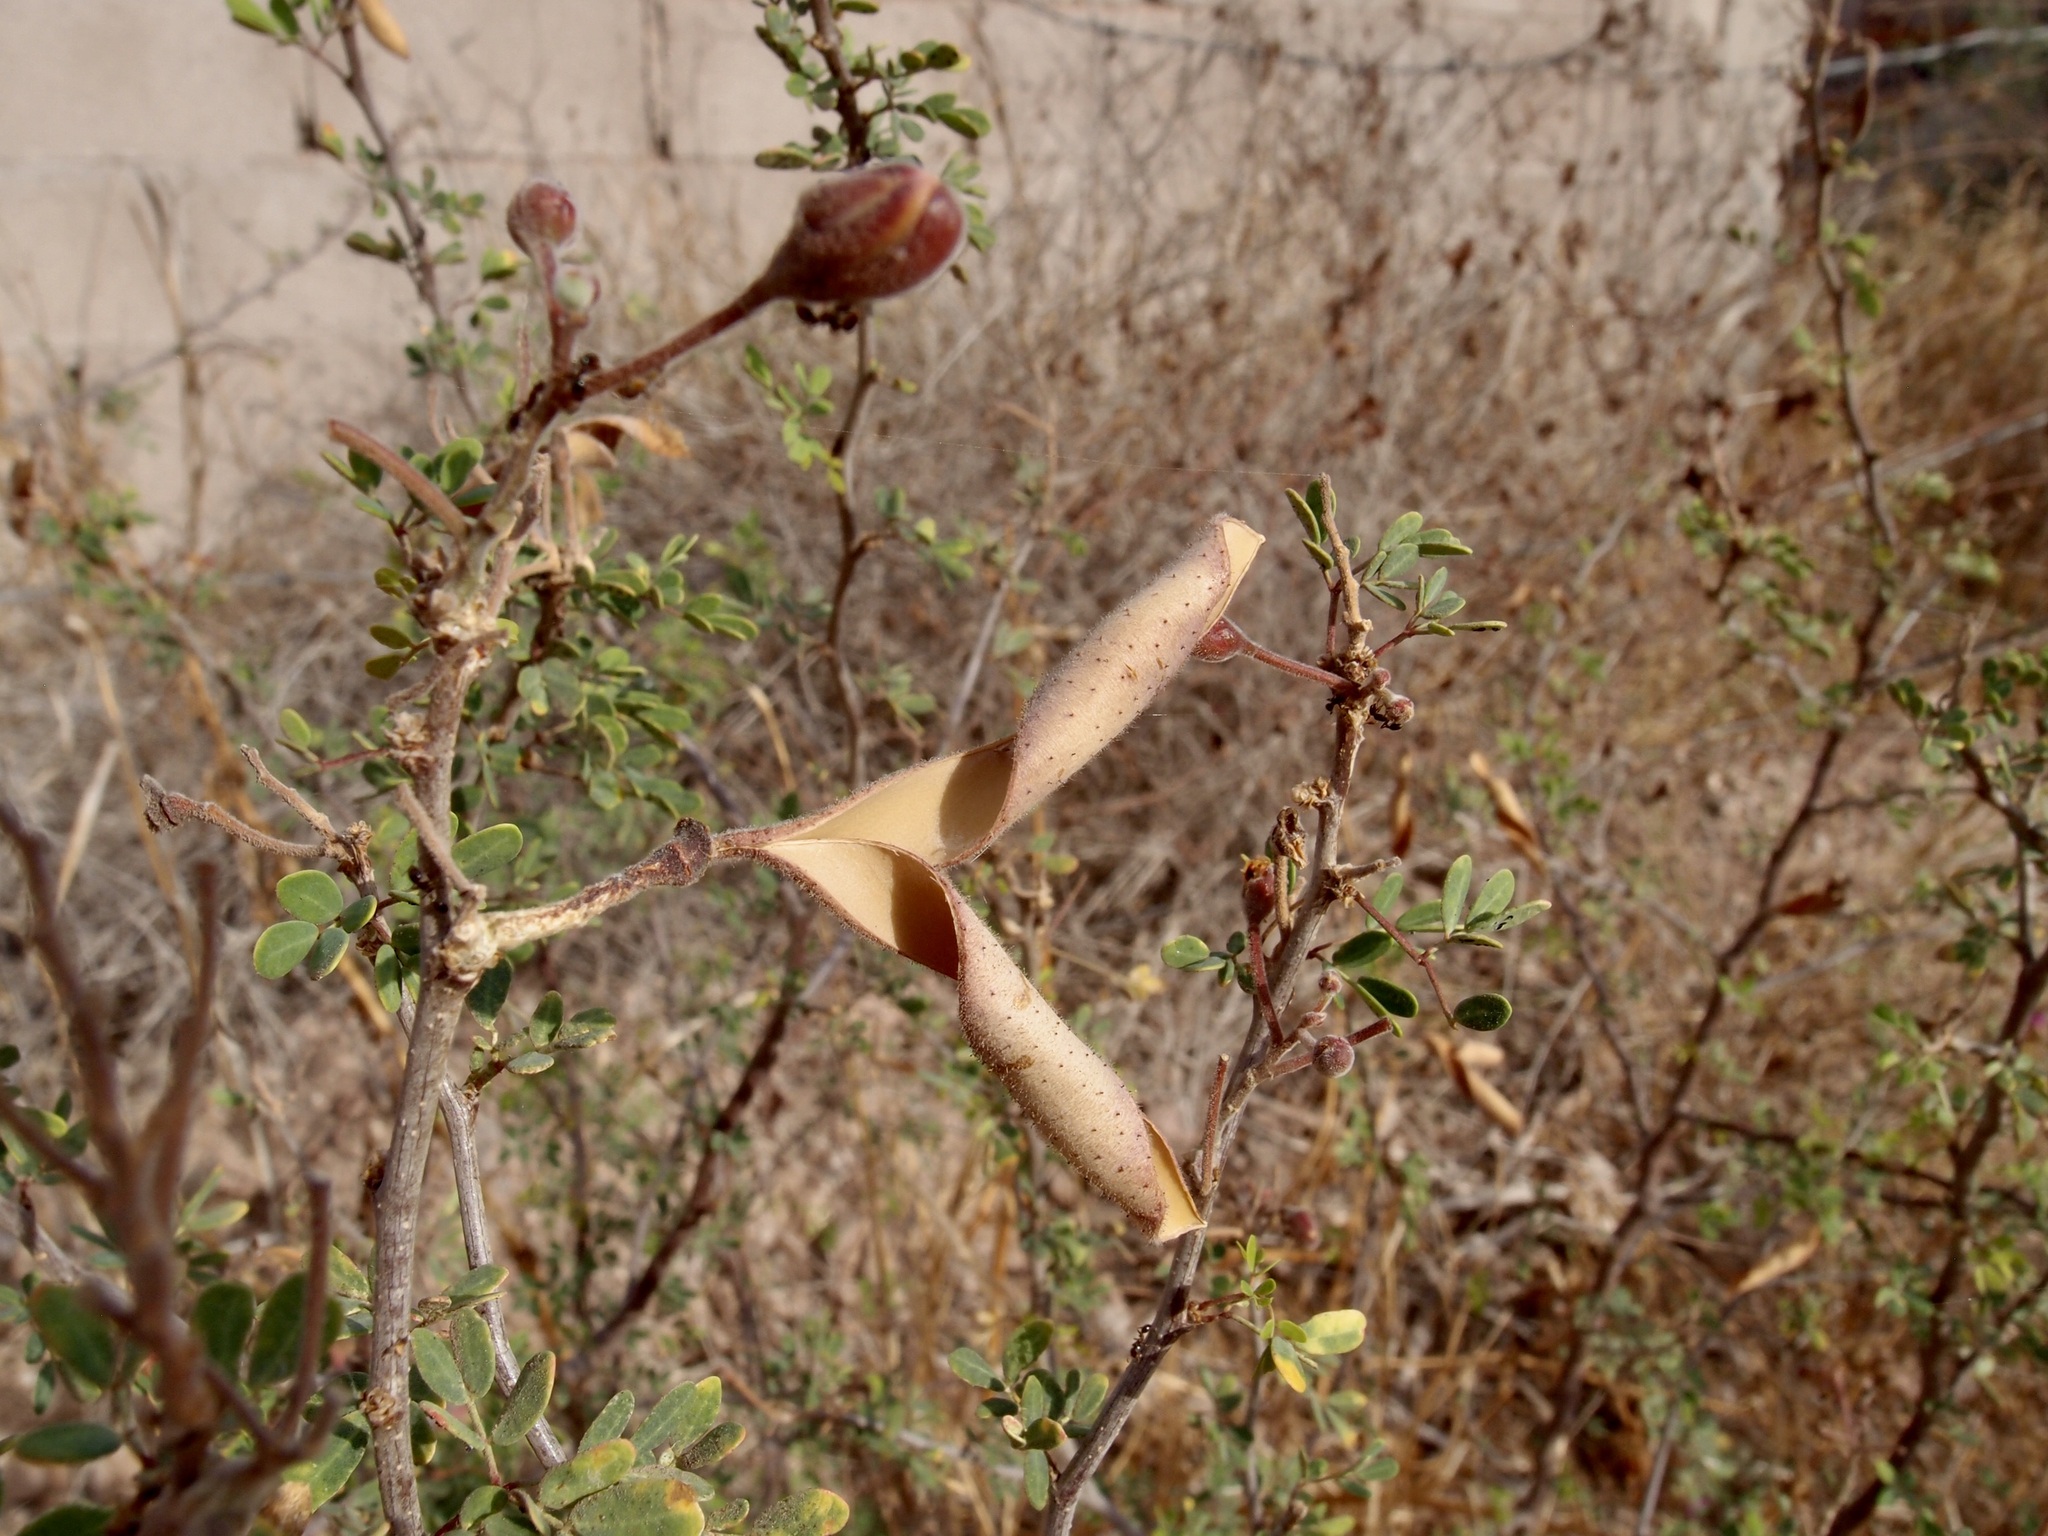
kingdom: Plantae
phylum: Tracheophyta
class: Magnoliopsida
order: Fabales
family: Fabaceae
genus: Erythrostemon
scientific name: Erythrostemon palmeri
